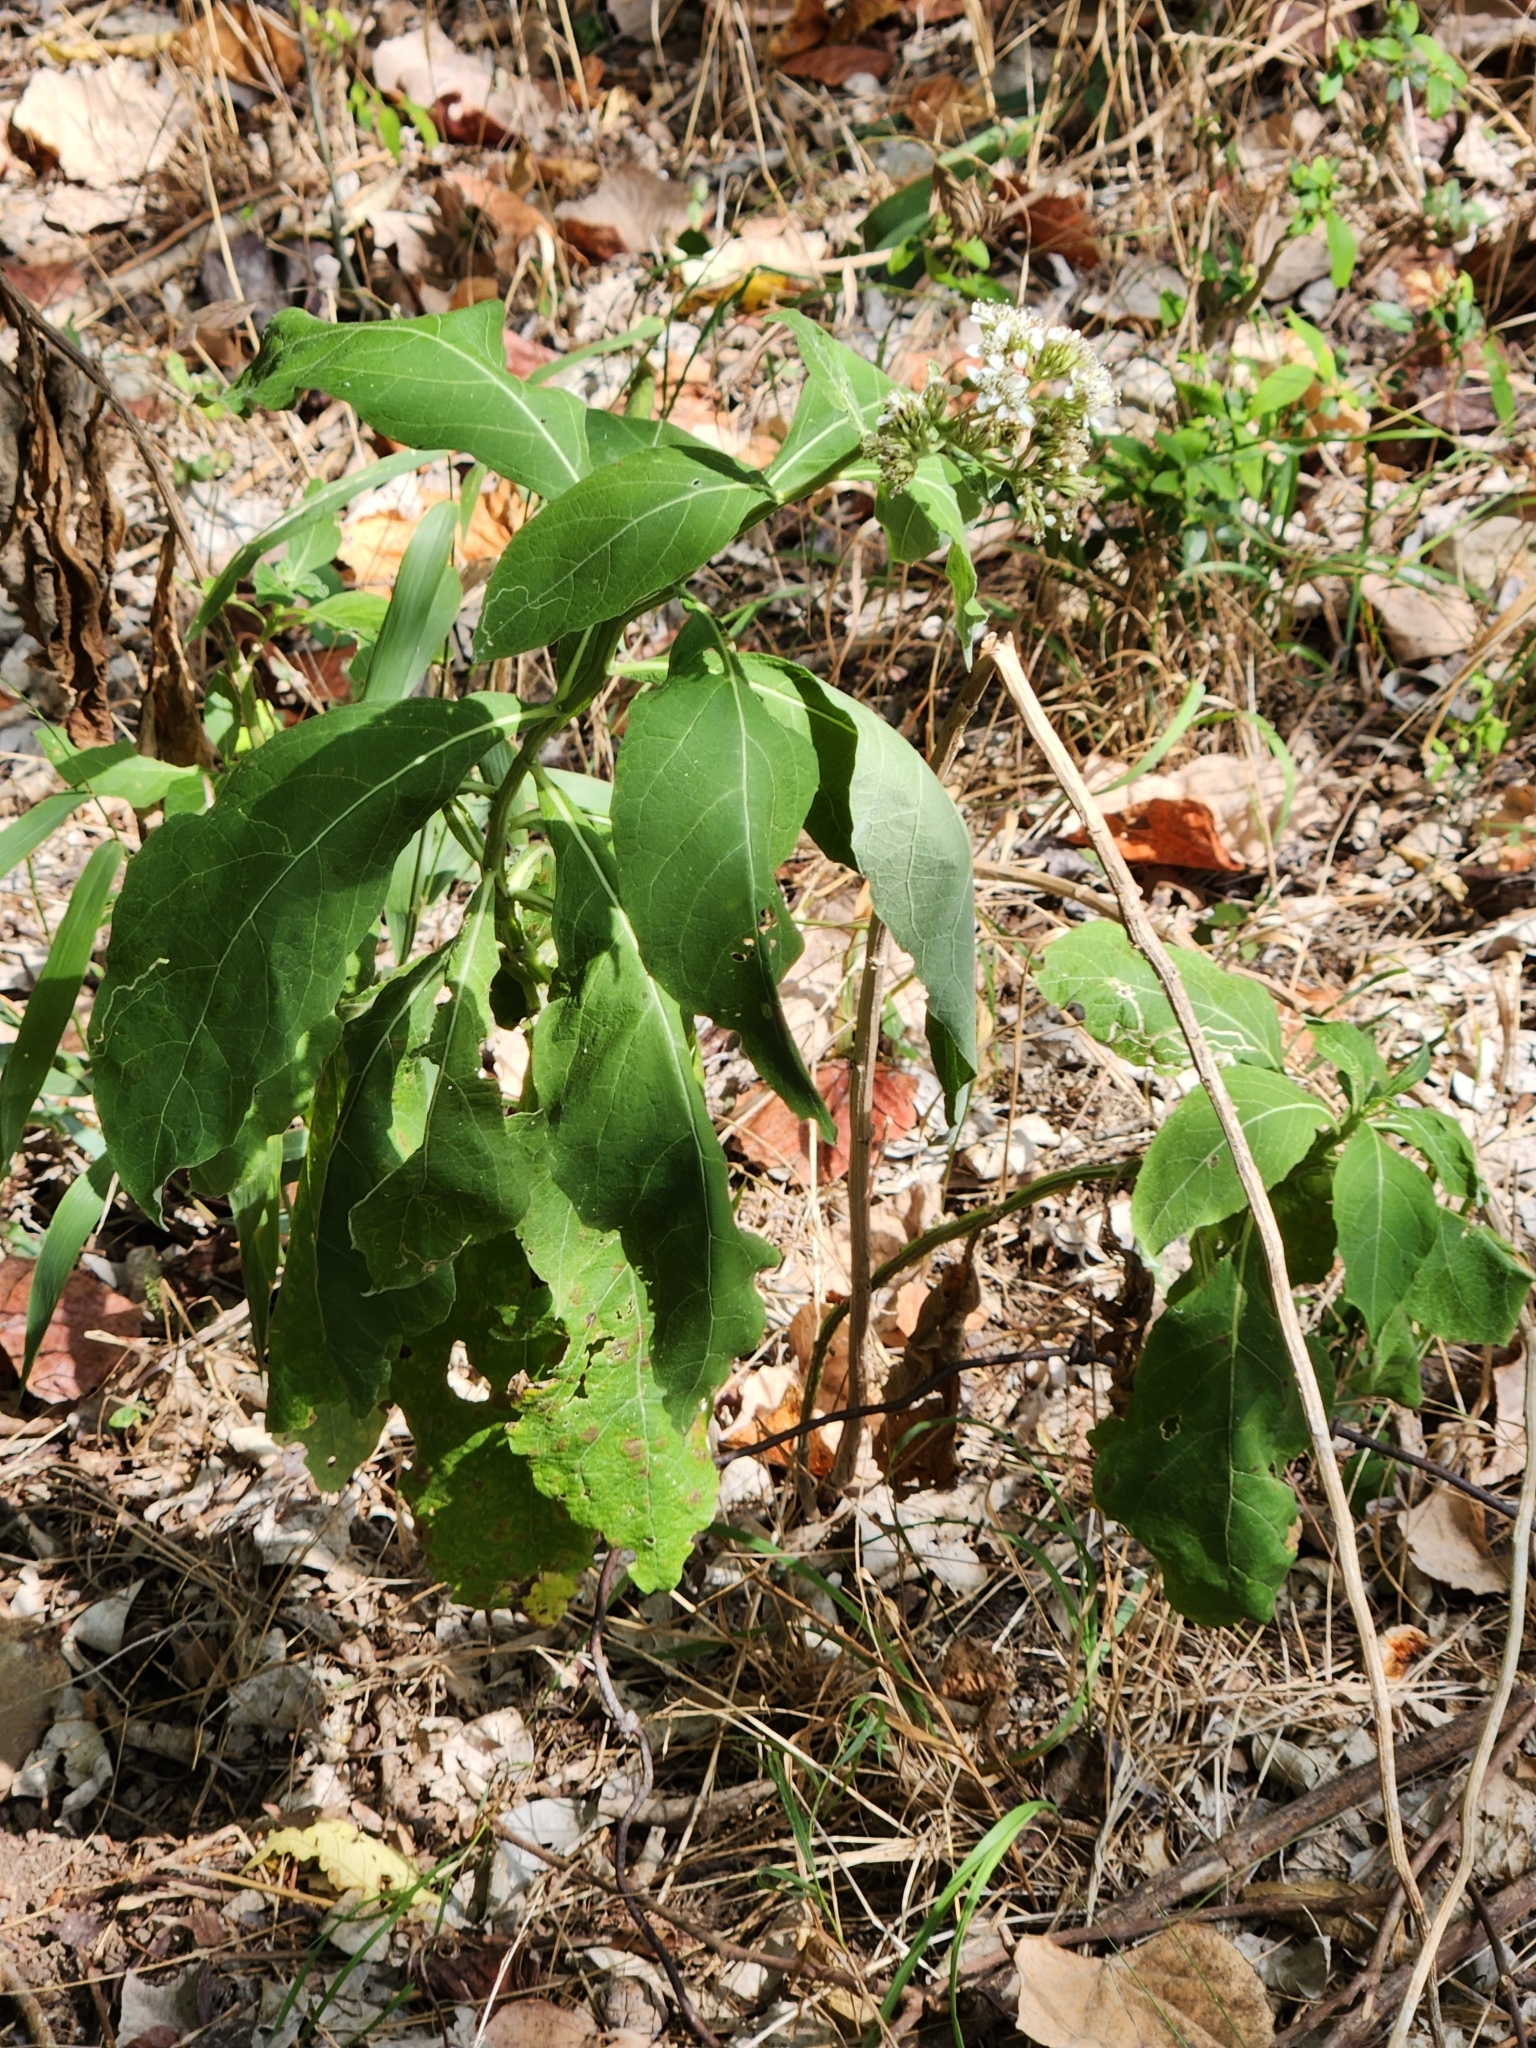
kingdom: Plantae
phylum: Tracheophyta
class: Magnoliopsida
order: Asterales
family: Asteraceae
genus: Verbesina
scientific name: Verbesina virginica
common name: Frostweed
